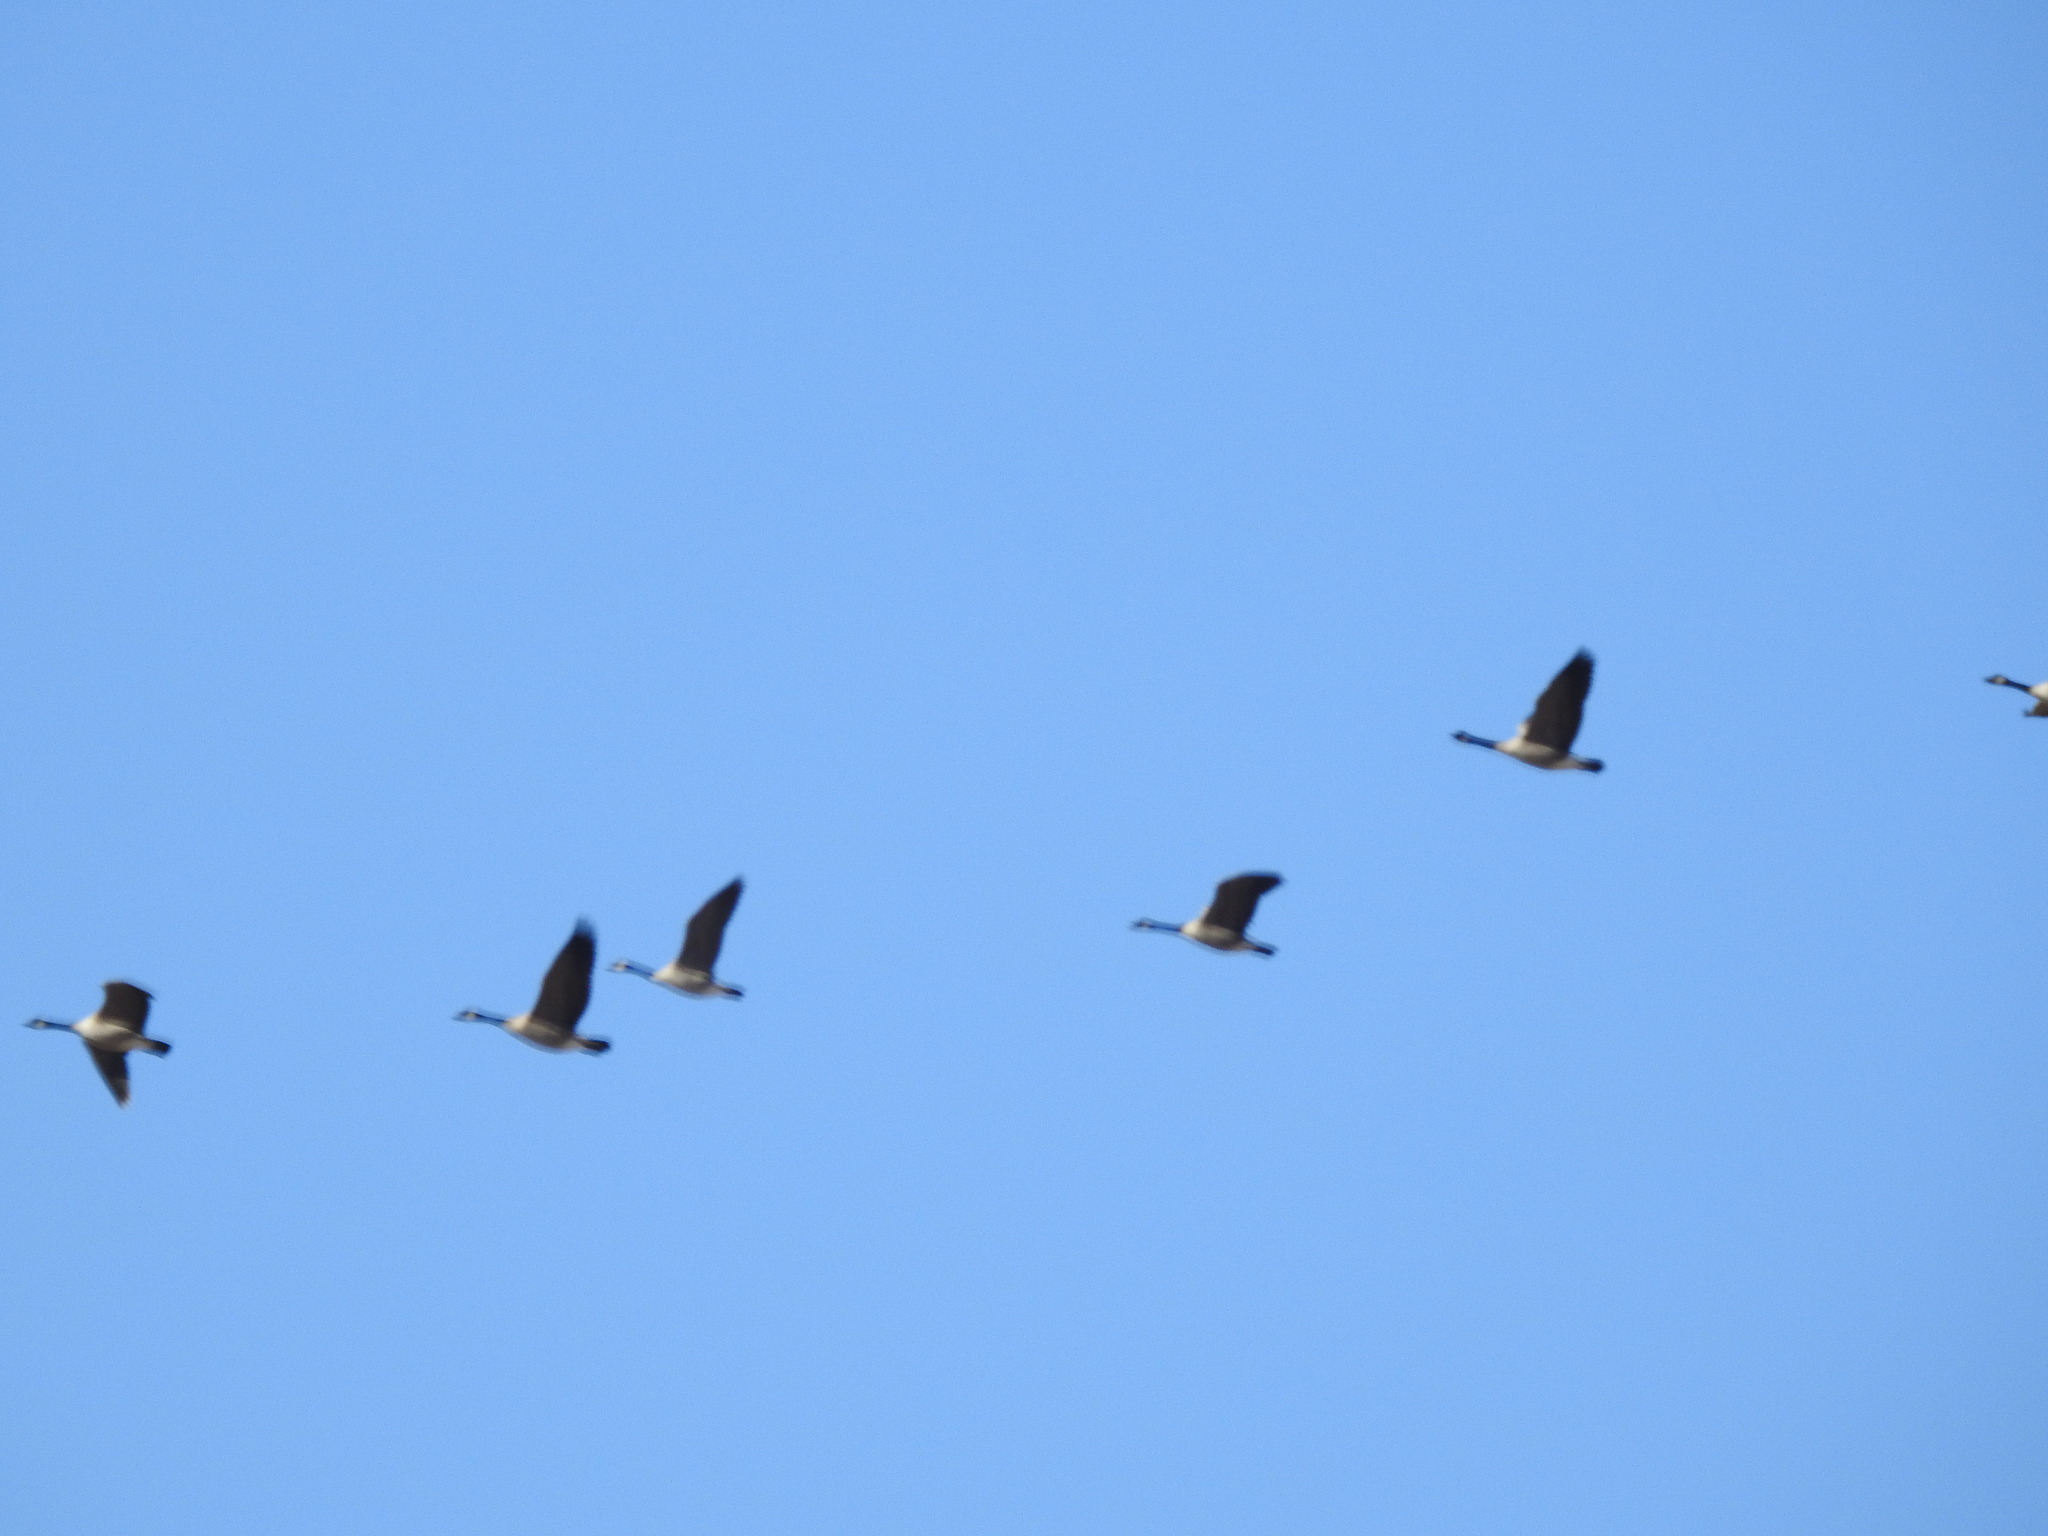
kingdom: Animalia
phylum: Chordata
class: Aves
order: Anseriformes
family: Anatidae
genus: Branta
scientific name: Branta canadensis
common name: Canada goose
